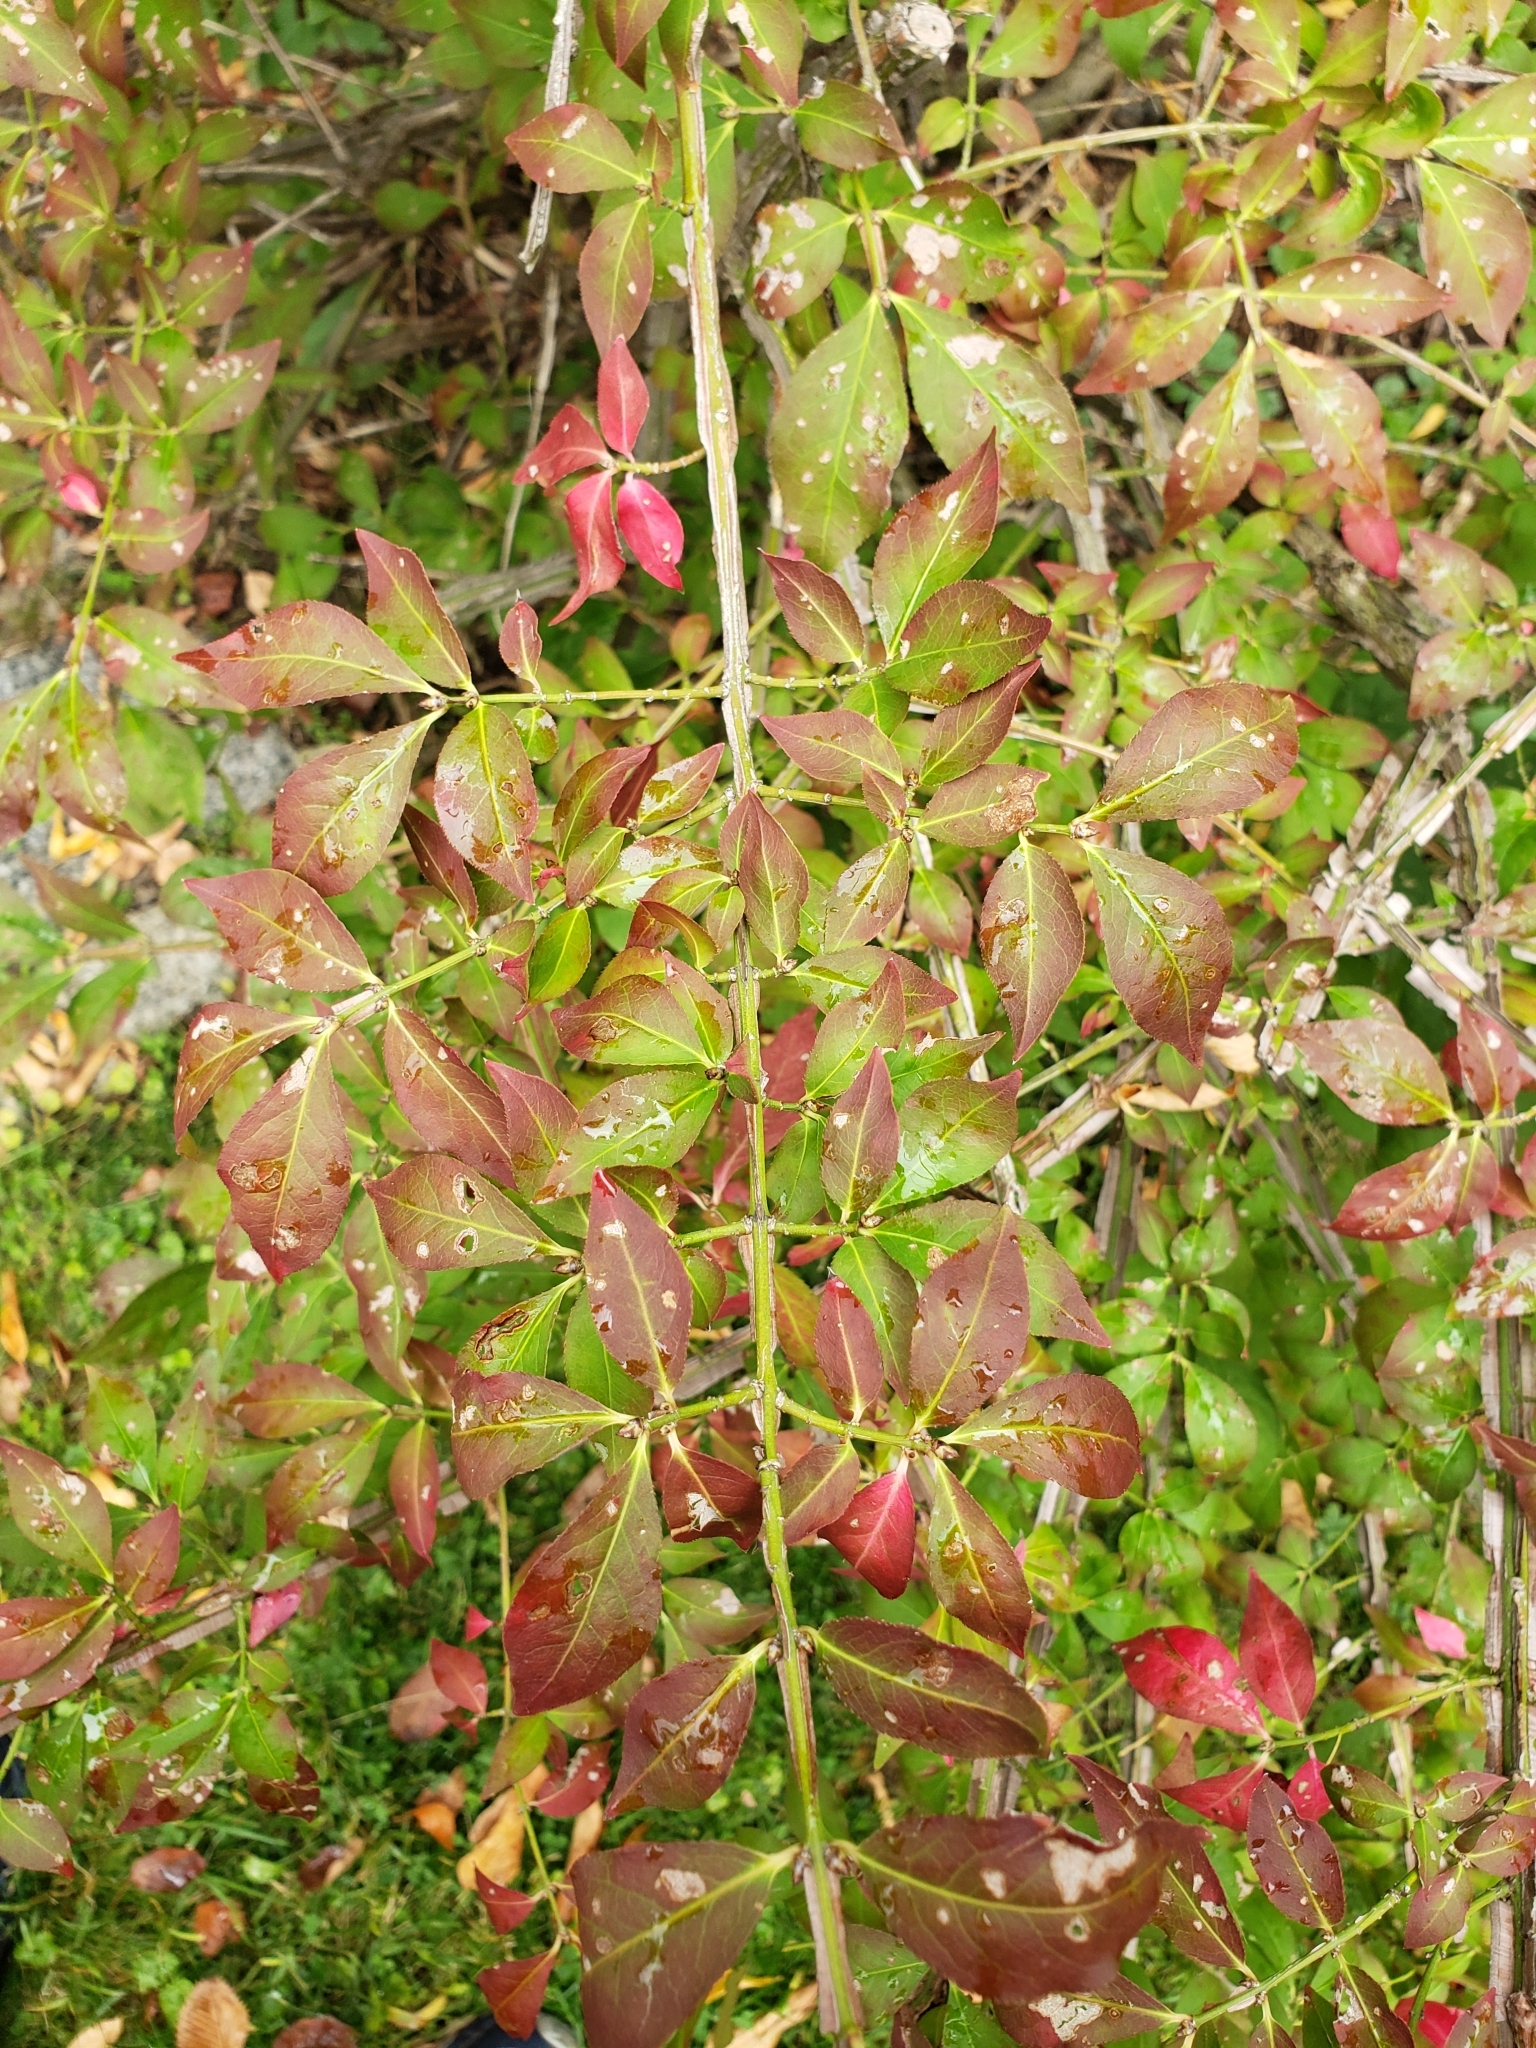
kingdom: Plantae
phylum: Tracheophyta
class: Magnoliopsida
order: Celastrales
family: Celastraceae
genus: Euonymus
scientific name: Euonymus alatus
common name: Winged euonymus
